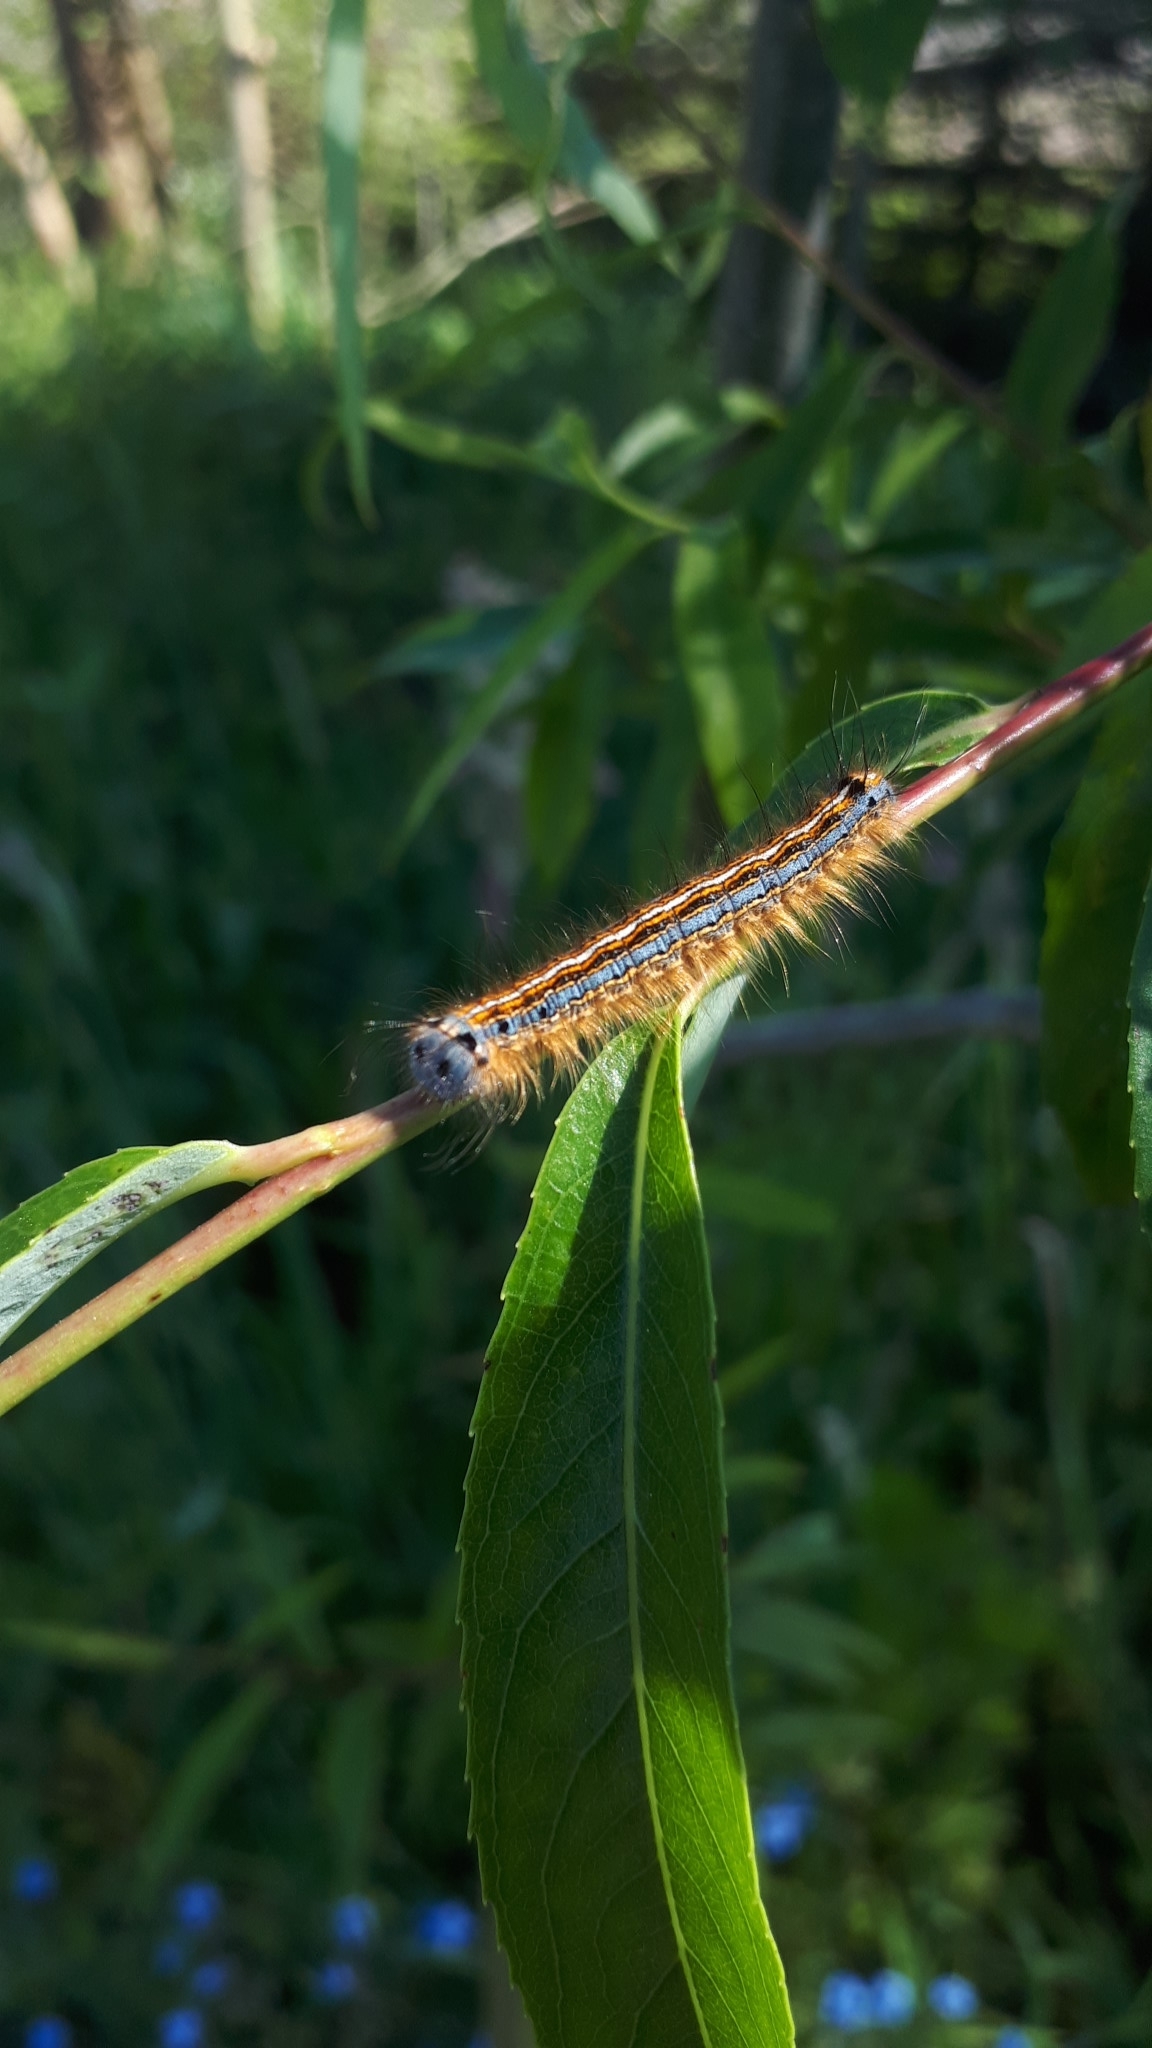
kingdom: Animalia
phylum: Arthropoda
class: Insecta
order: Lepidoptera
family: Lasiocampidae
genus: Malacosoma
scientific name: Malacosoma neustria
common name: The lackey
